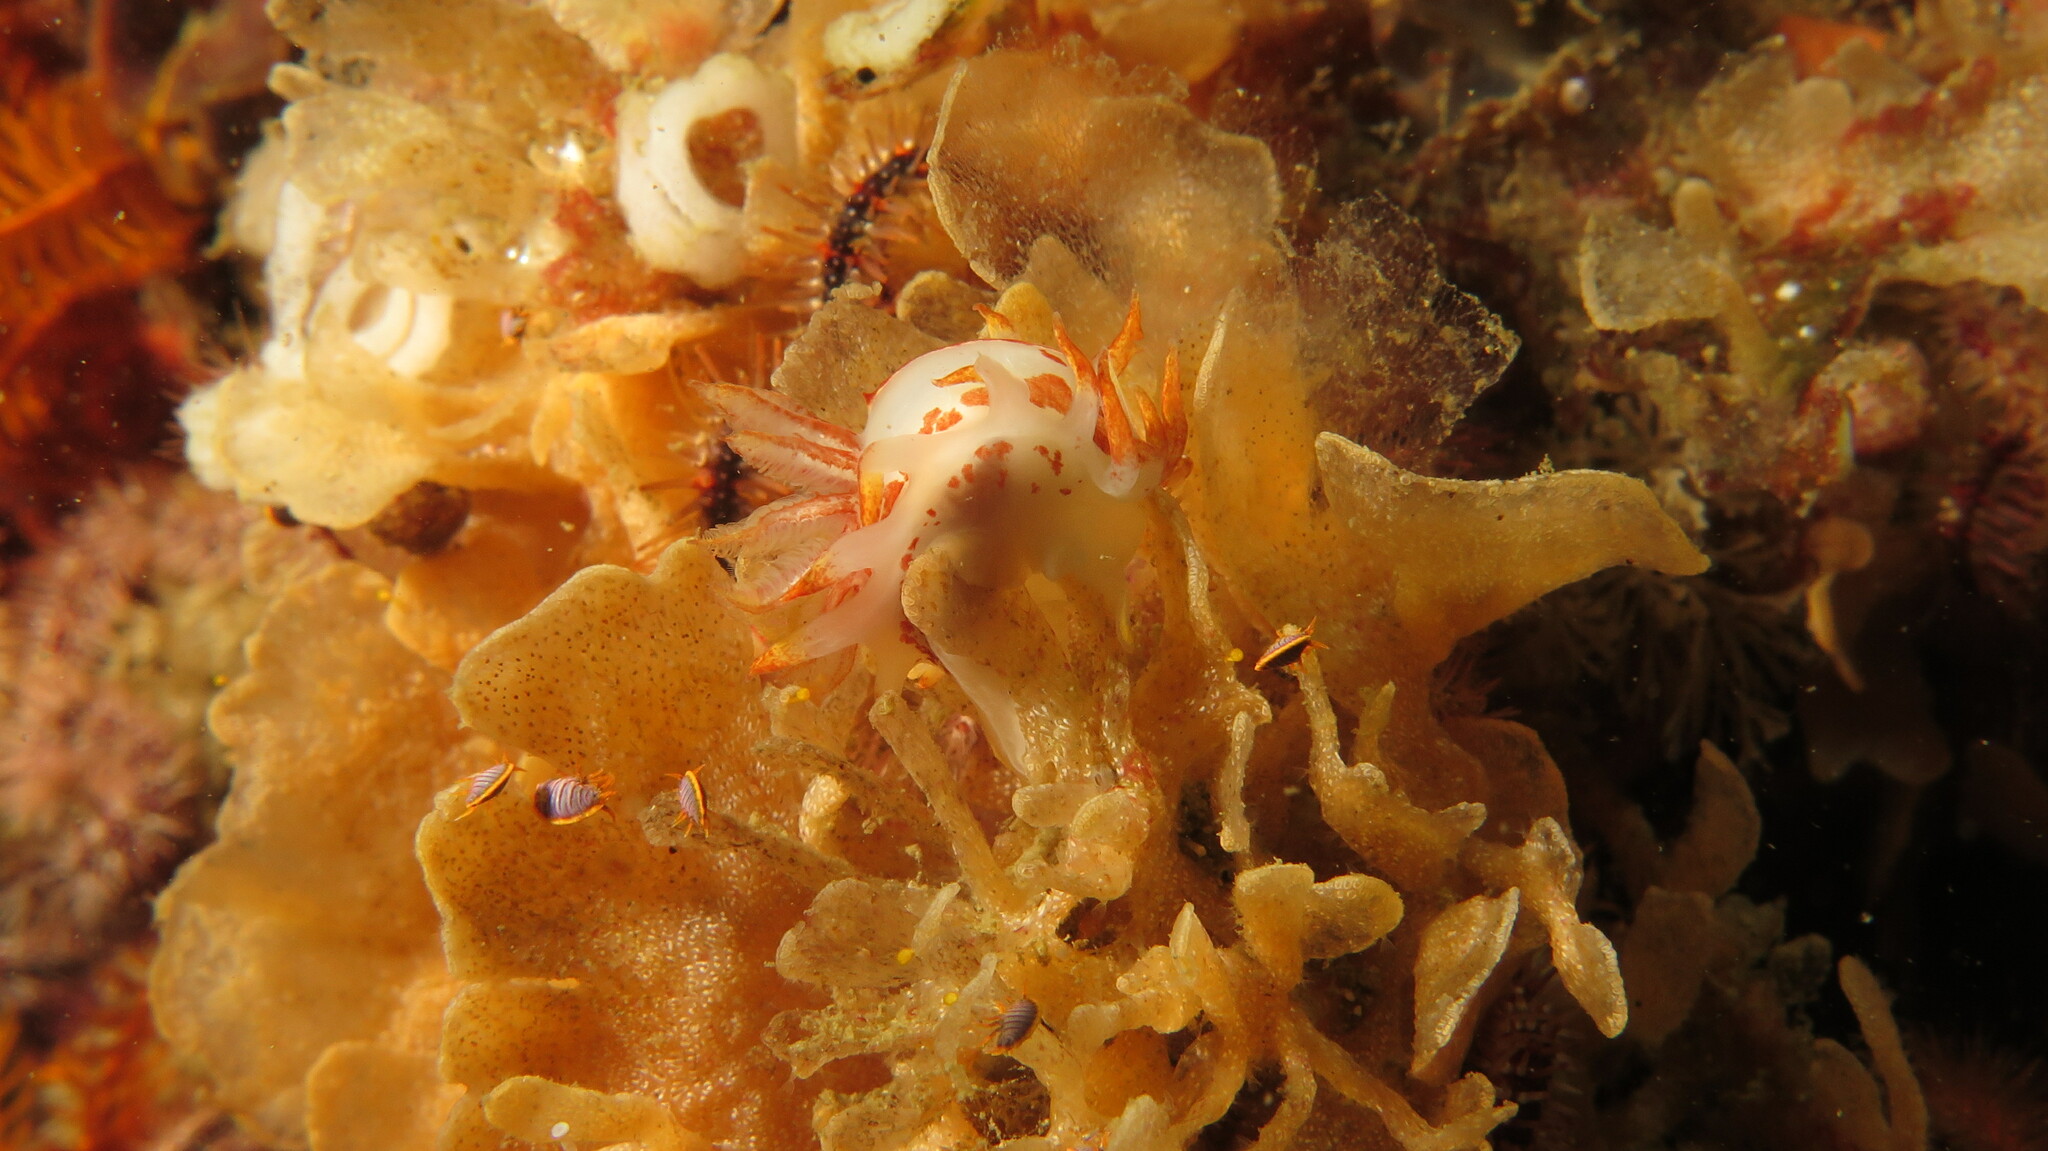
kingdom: Animalia
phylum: Mollusca
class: Gastropoda
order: Nudibranchia
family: Goniodorididae
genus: Okenia
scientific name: Okenia amoenula
